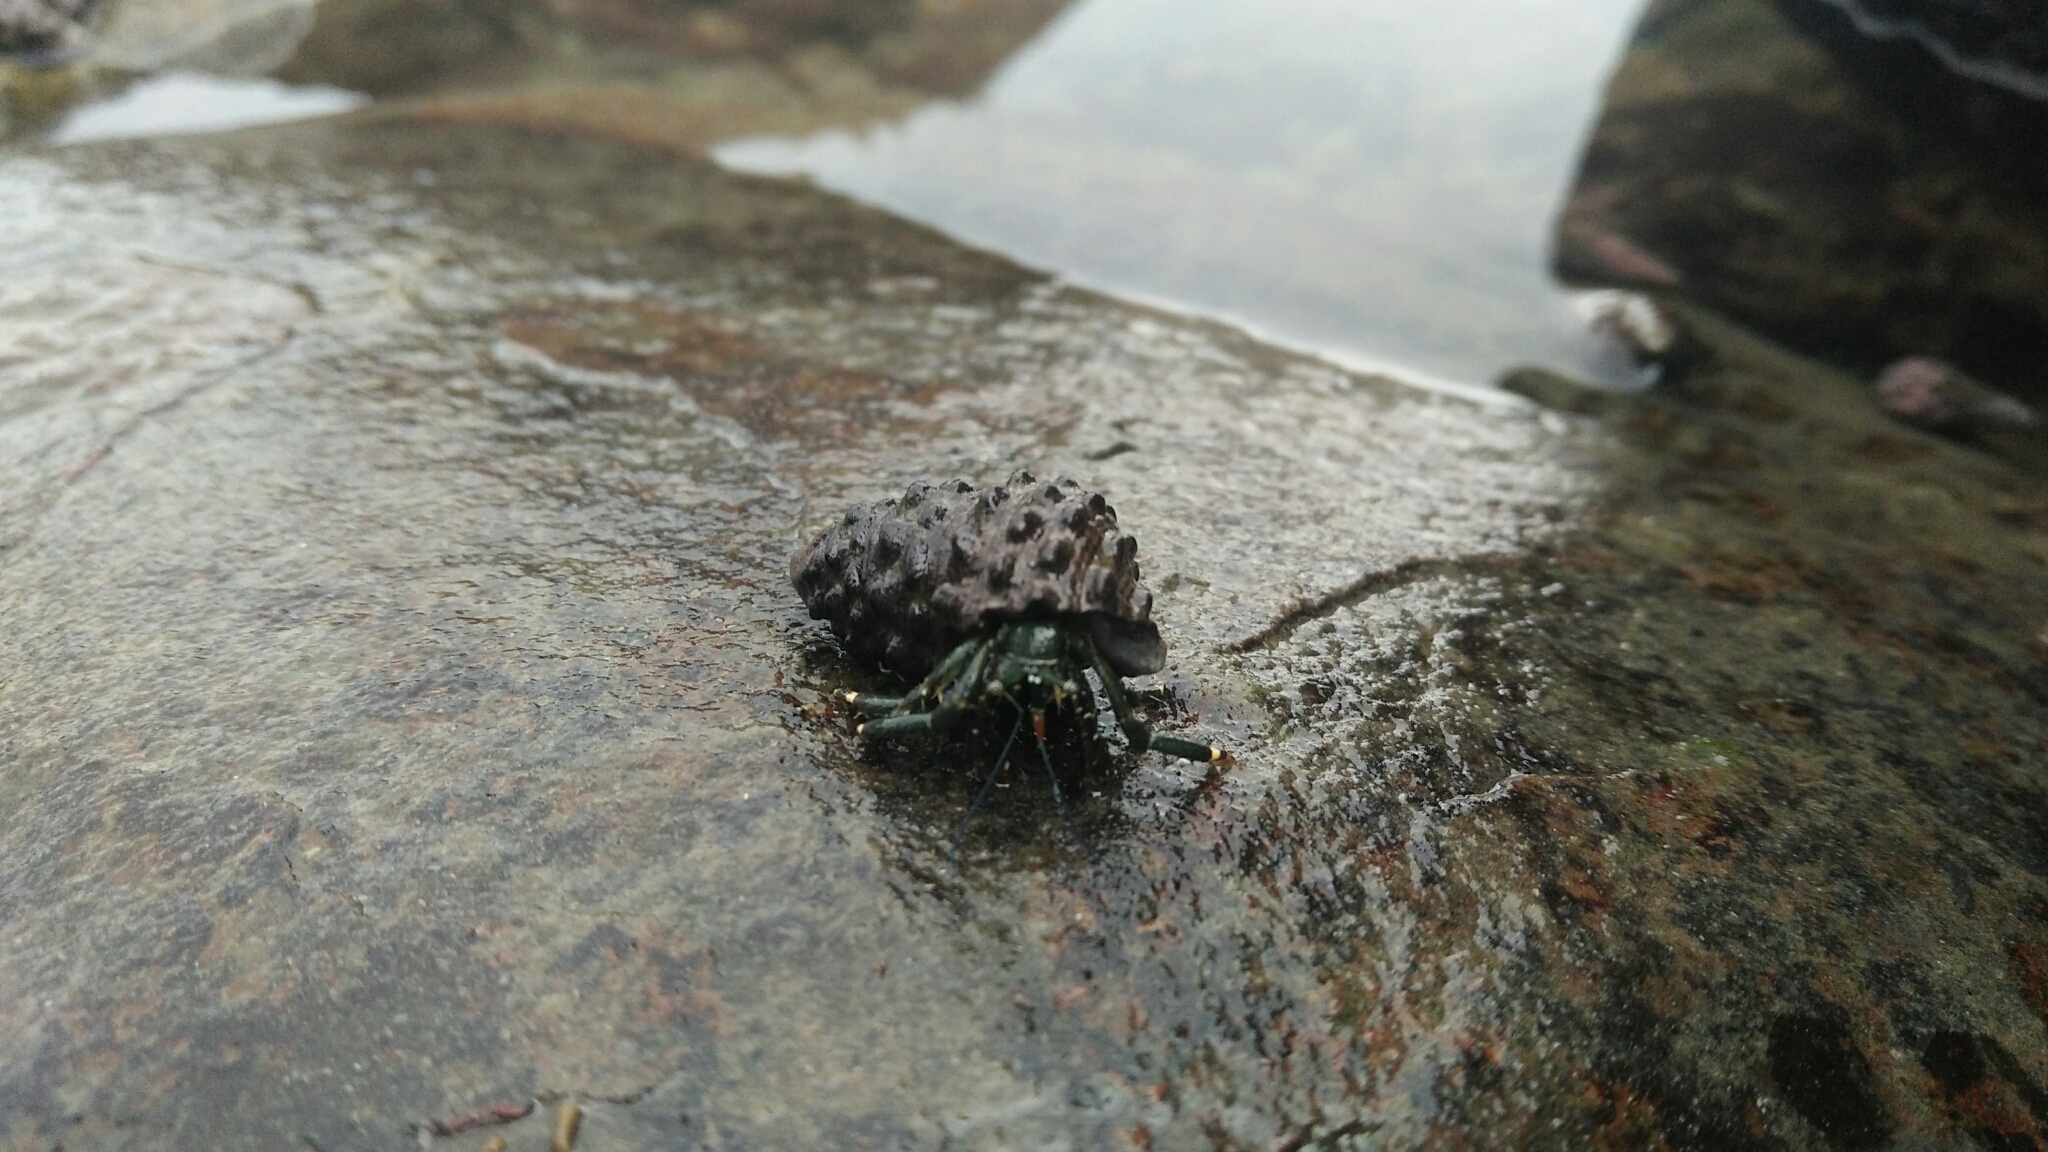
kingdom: Animalia
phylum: Arthropoda
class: Malacostraca
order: Decapoda
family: Diogenidae
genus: Clibanarius
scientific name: Clibanarius virescens
